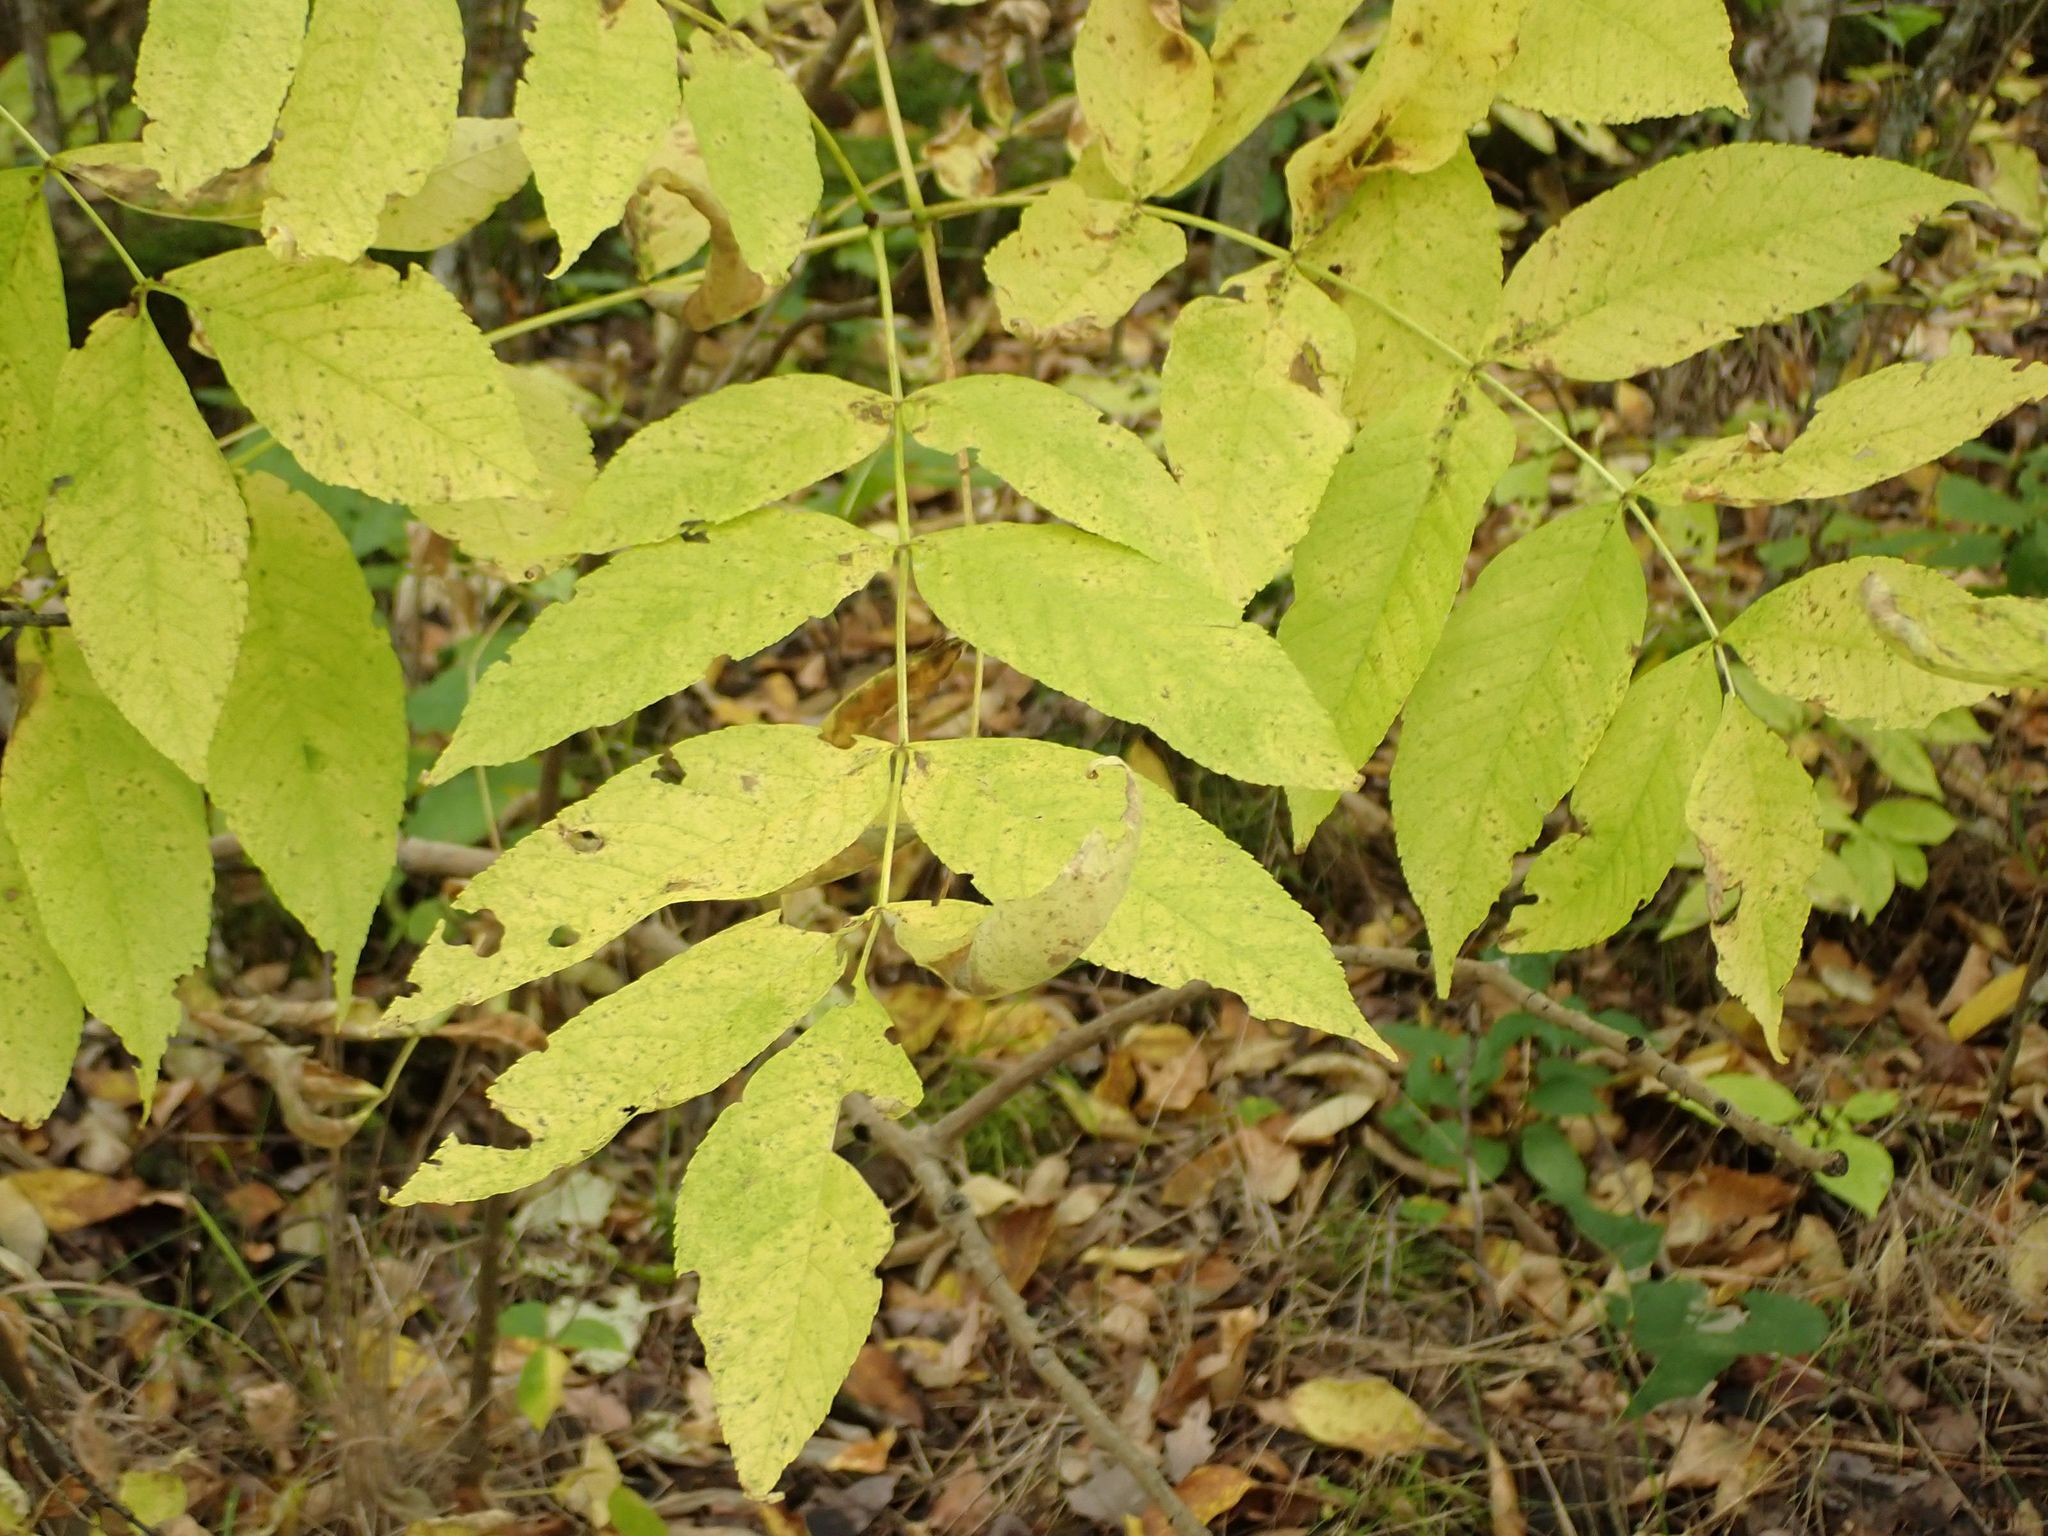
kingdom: Plantae
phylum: Tracheophyta
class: Magnoliopsida
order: Lamiales
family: Oleaceae
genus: Fraxinus
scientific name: Fraxinus nigra
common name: Black ash
